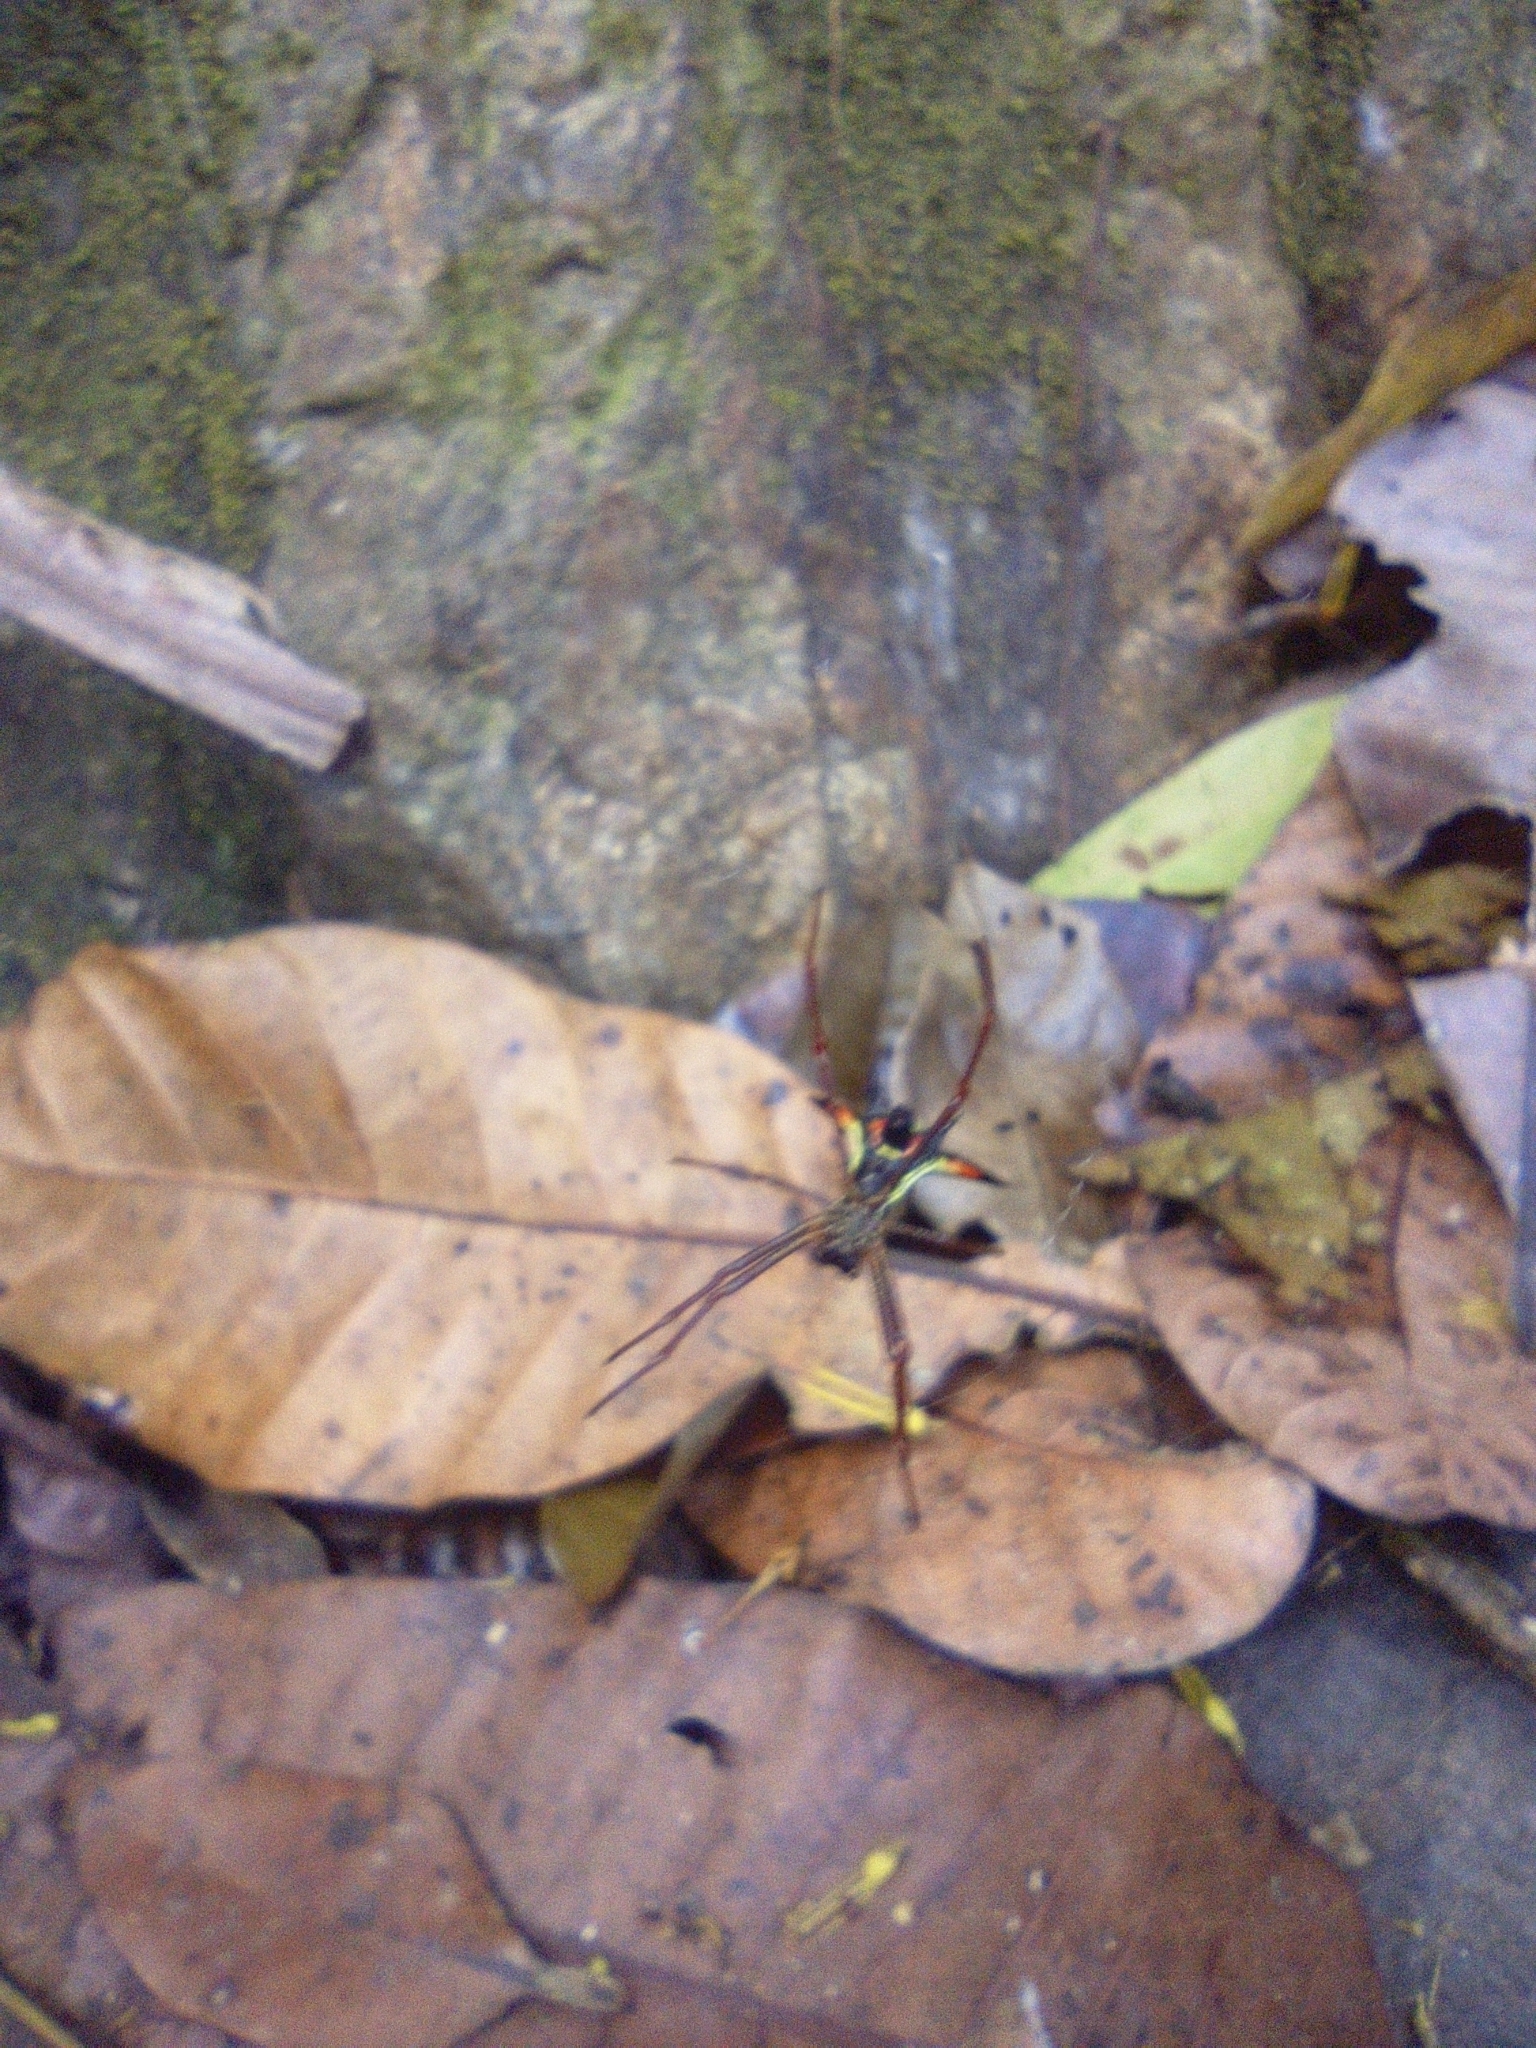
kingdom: Animalia
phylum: Arthropoda
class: Arachnida
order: Araneae
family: Araneidae
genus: Micrathena
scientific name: Micrathena schreibersi
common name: Orb weavers
